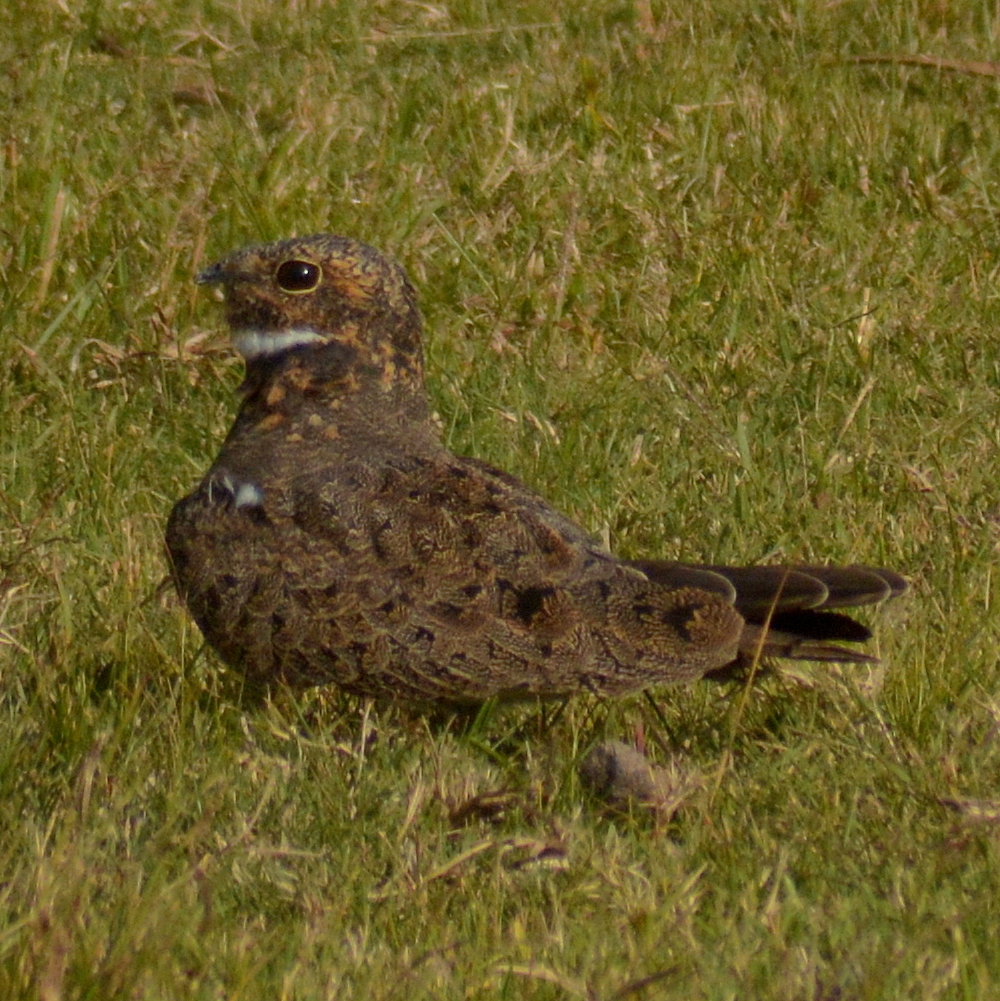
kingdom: Animalia
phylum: Chordata
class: Aves
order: Caprimulgiformes
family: Caprimulgidae
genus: Chordeiles
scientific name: Chordeiles nacunda
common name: Nacunda nighthawk
